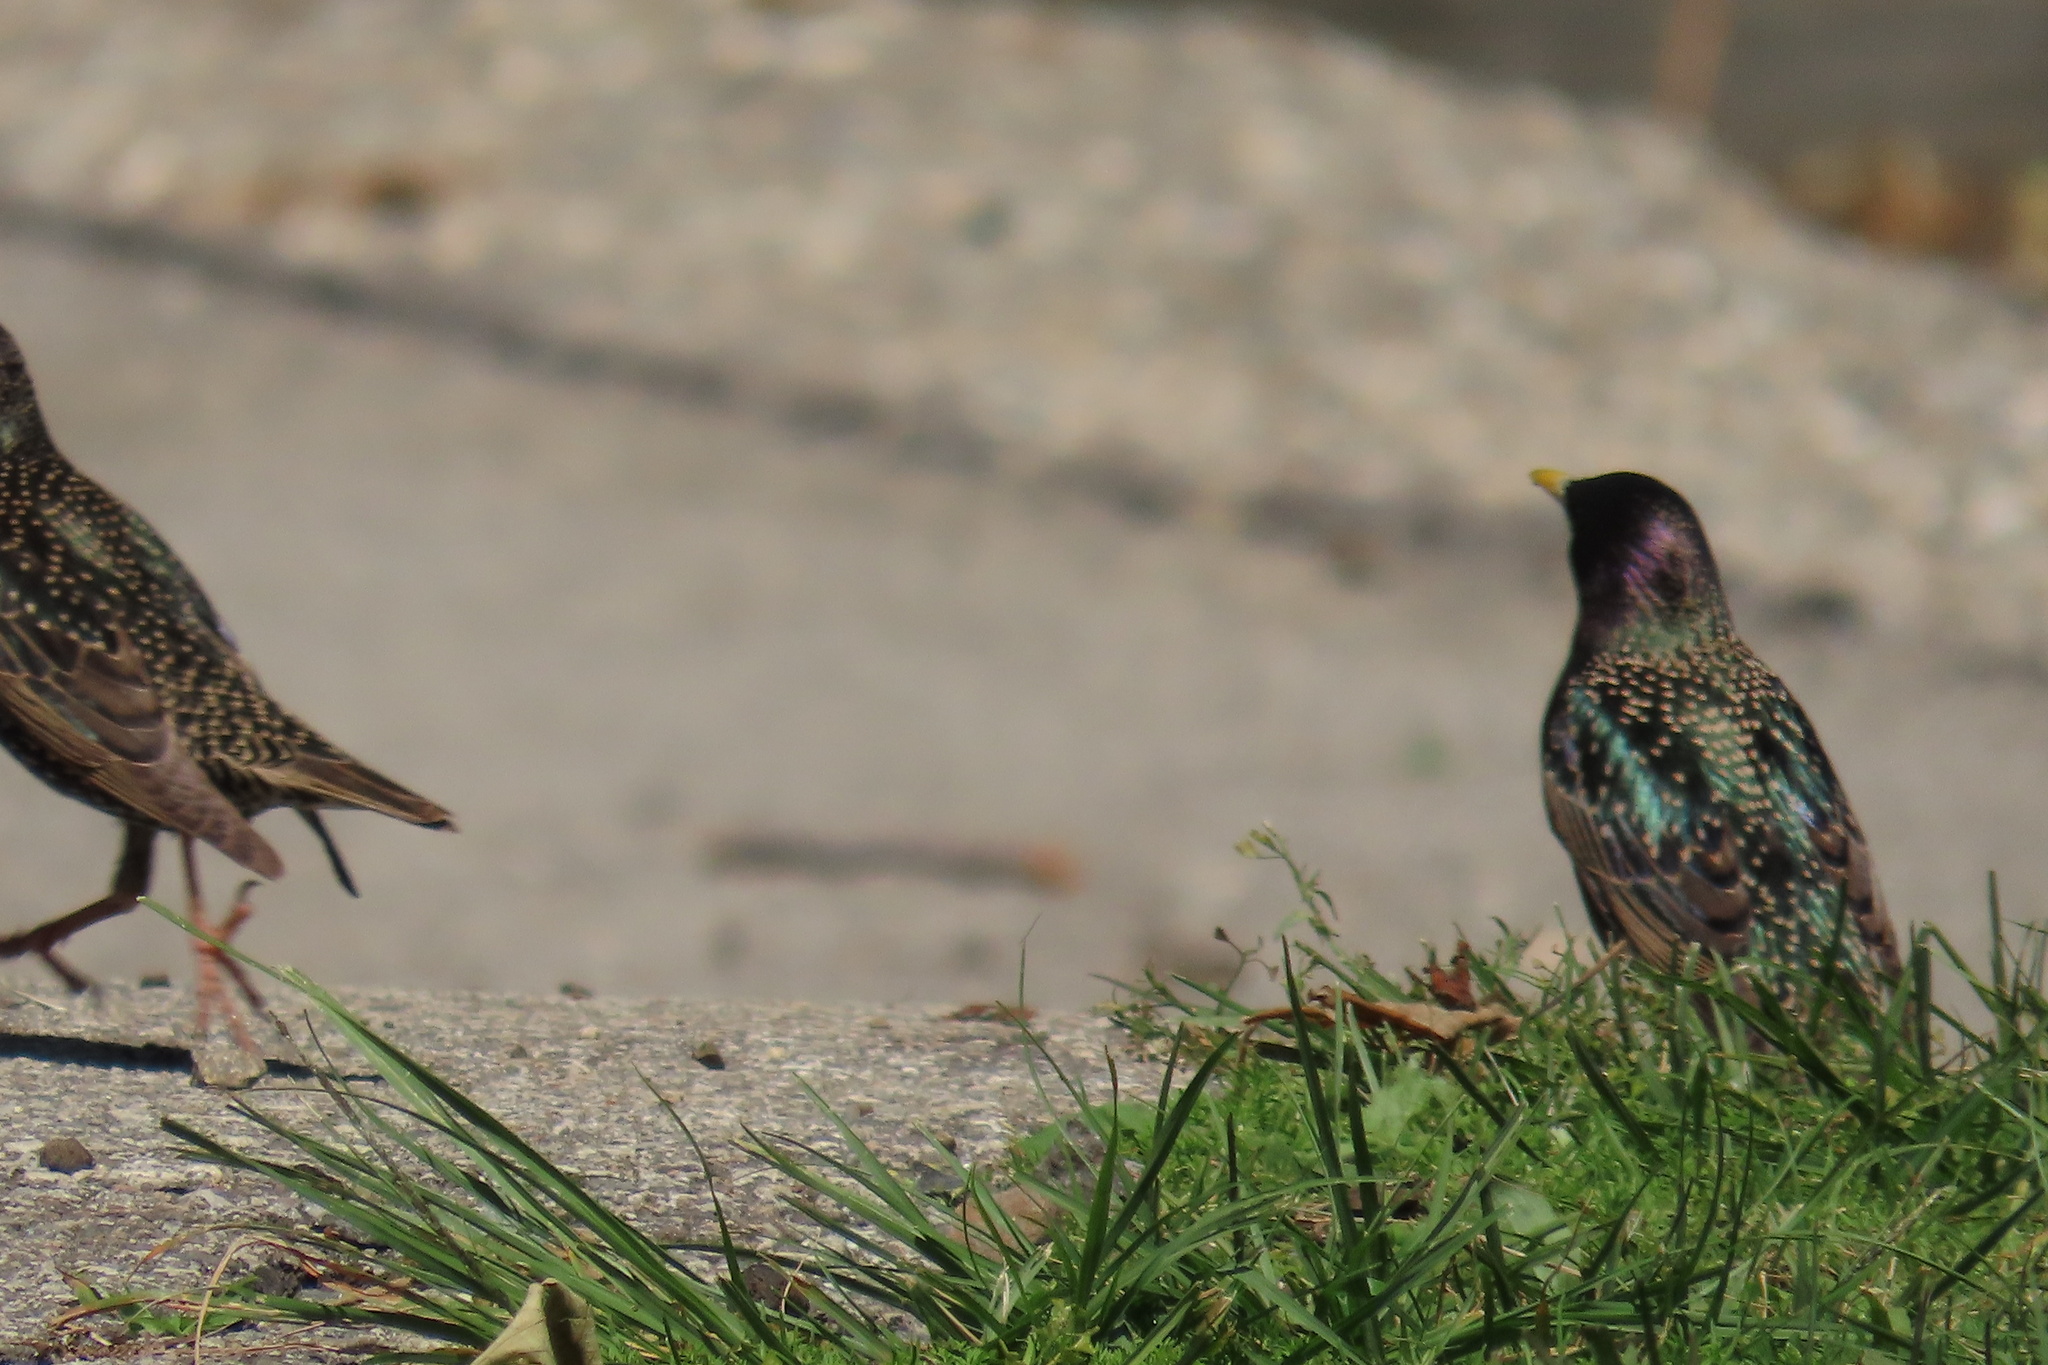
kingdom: Animalia
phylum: Chordata
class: Aves
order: Passeriformes
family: Sturnidae
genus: Sturnus
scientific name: Sturnus vulgaris
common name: Common starling
